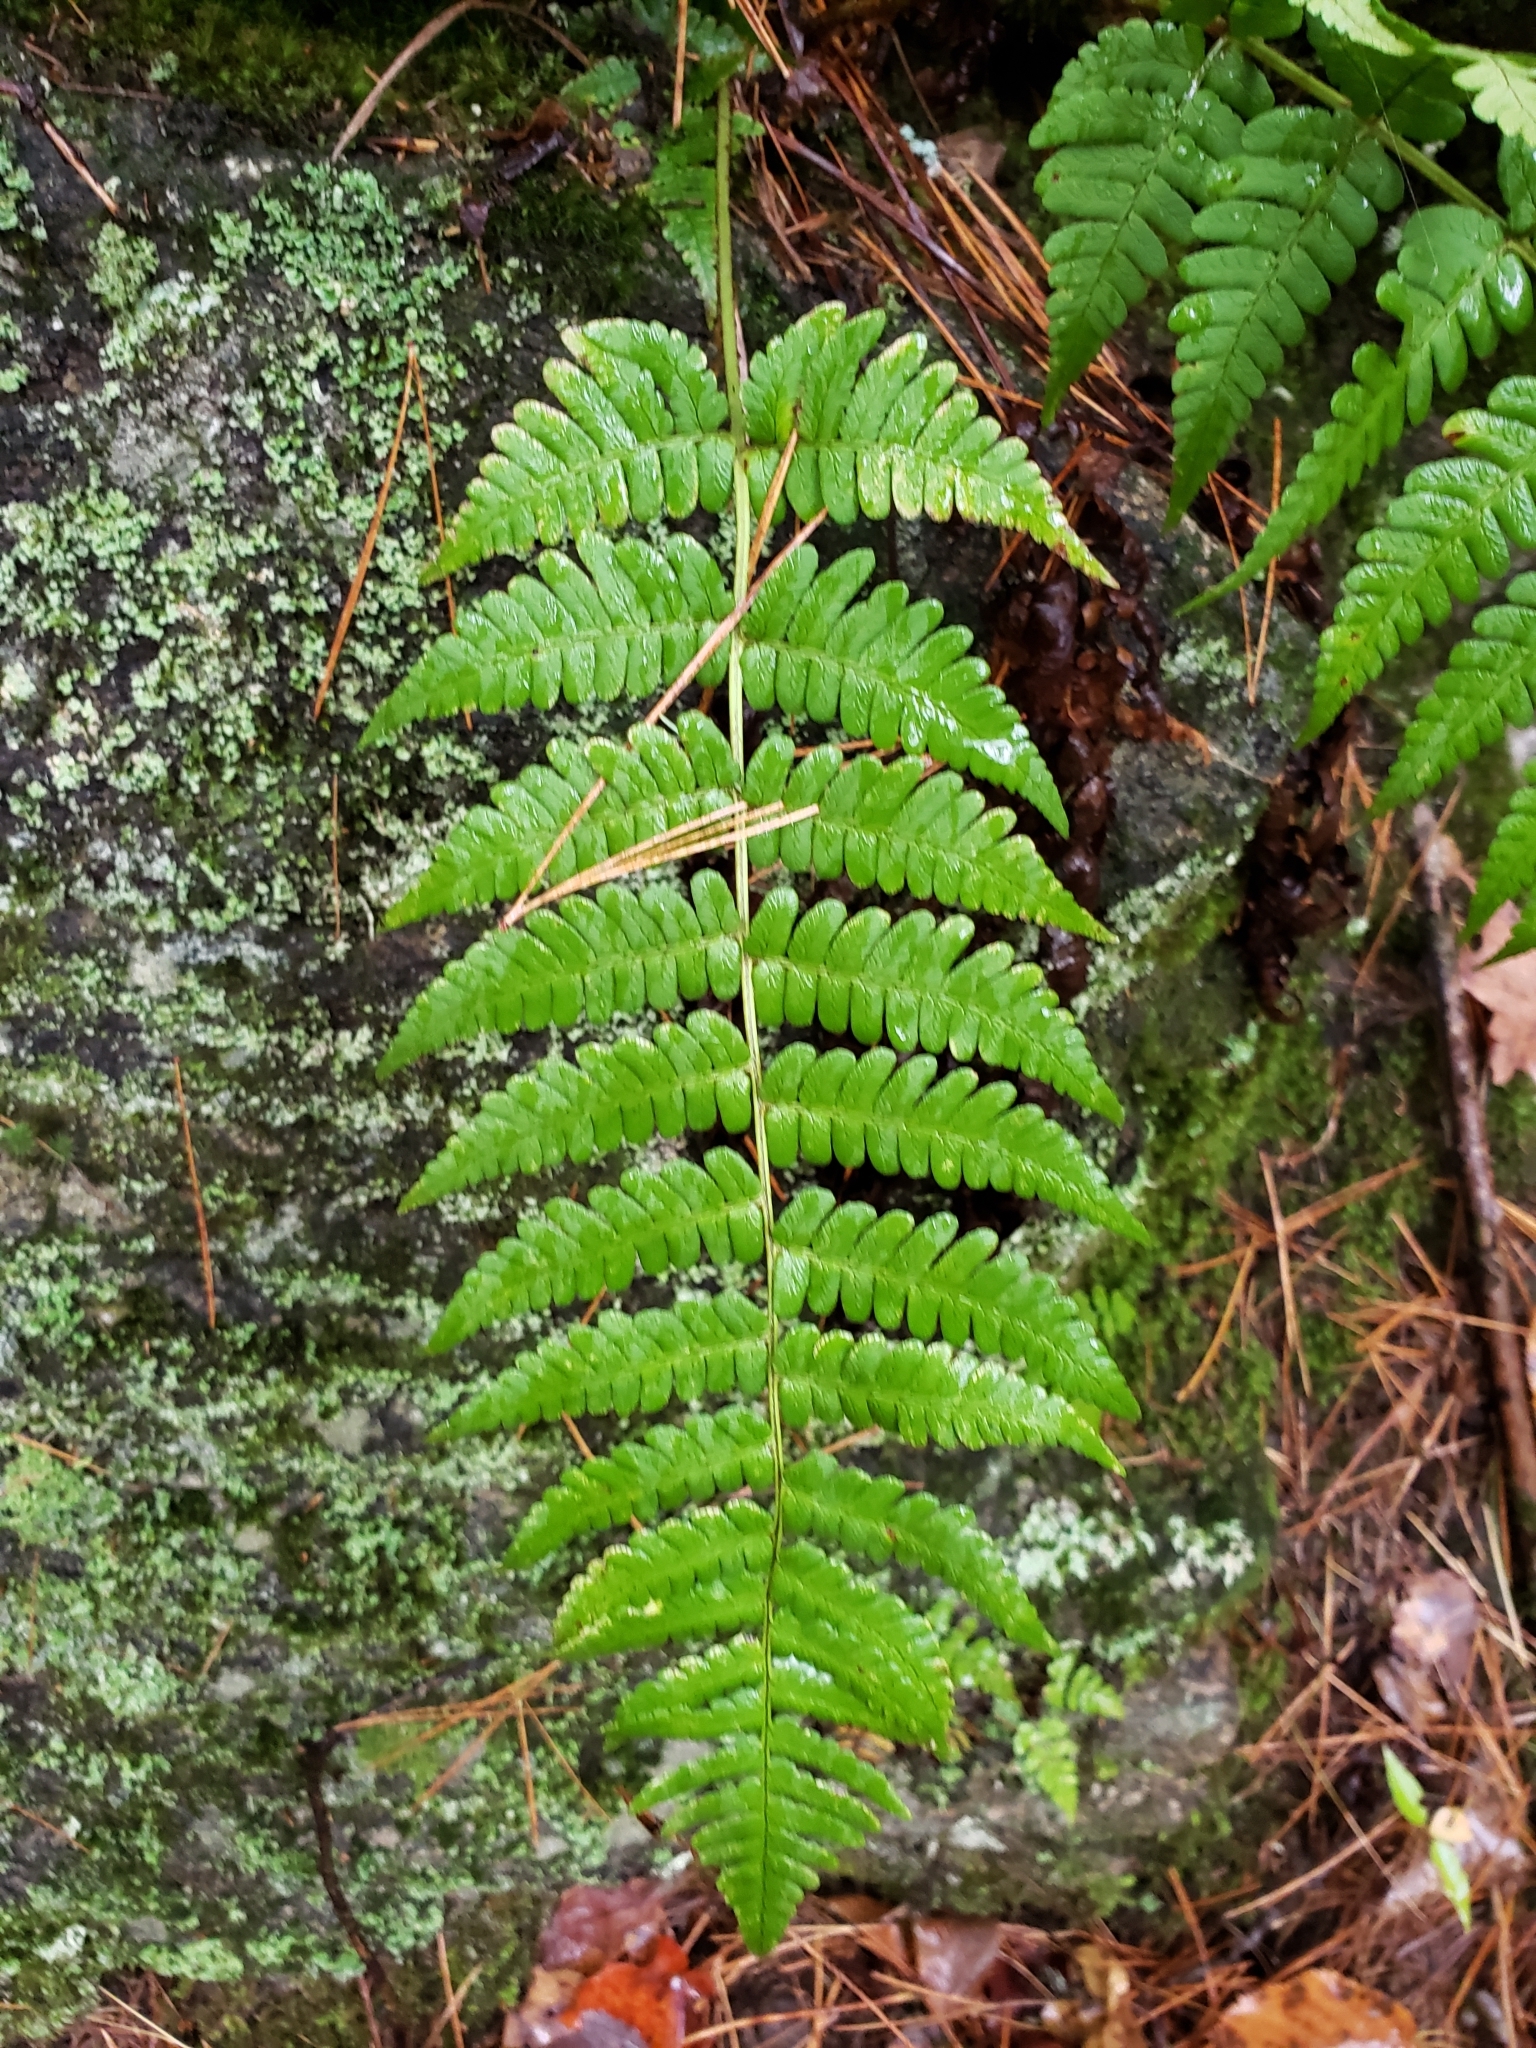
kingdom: Plantae
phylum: Tracheophyta
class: Polypodiopsida
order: Polypodiales
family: Dryopteridaceae
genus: Dryopteris
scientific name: Dryopteris marginalis
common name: Marginal wood fern
